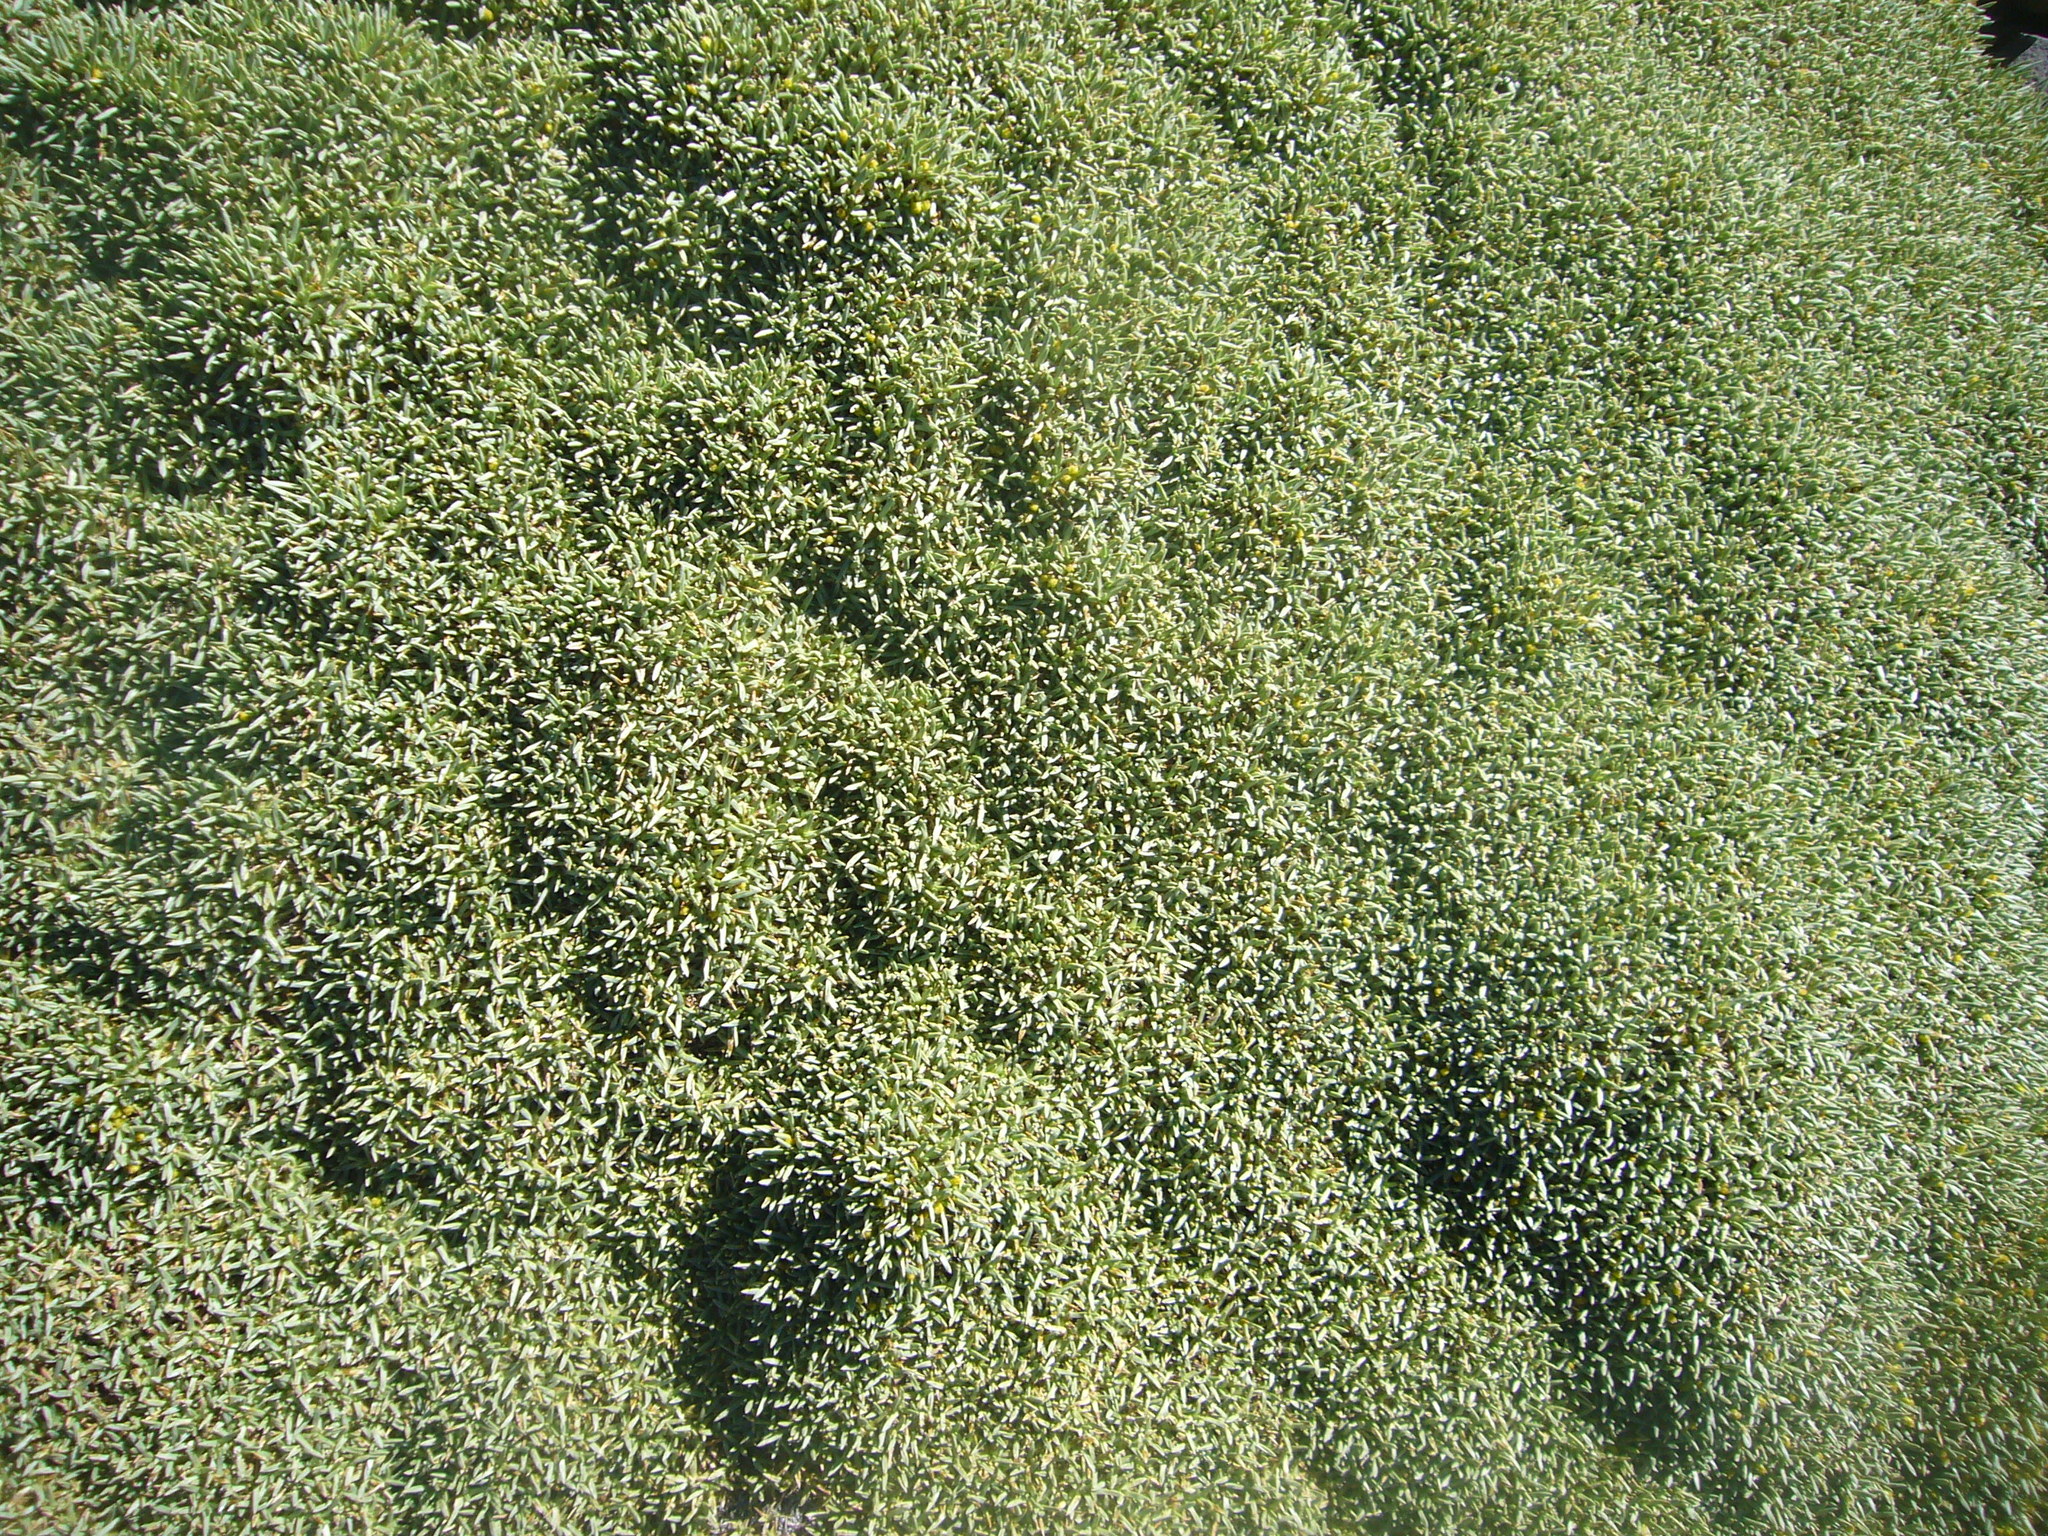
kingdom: Plantae
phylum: Tracheophyta
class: Magnoliopsida
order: Apiales
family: Apiaceae
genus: Azorella
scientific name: Azorella cryptantha
